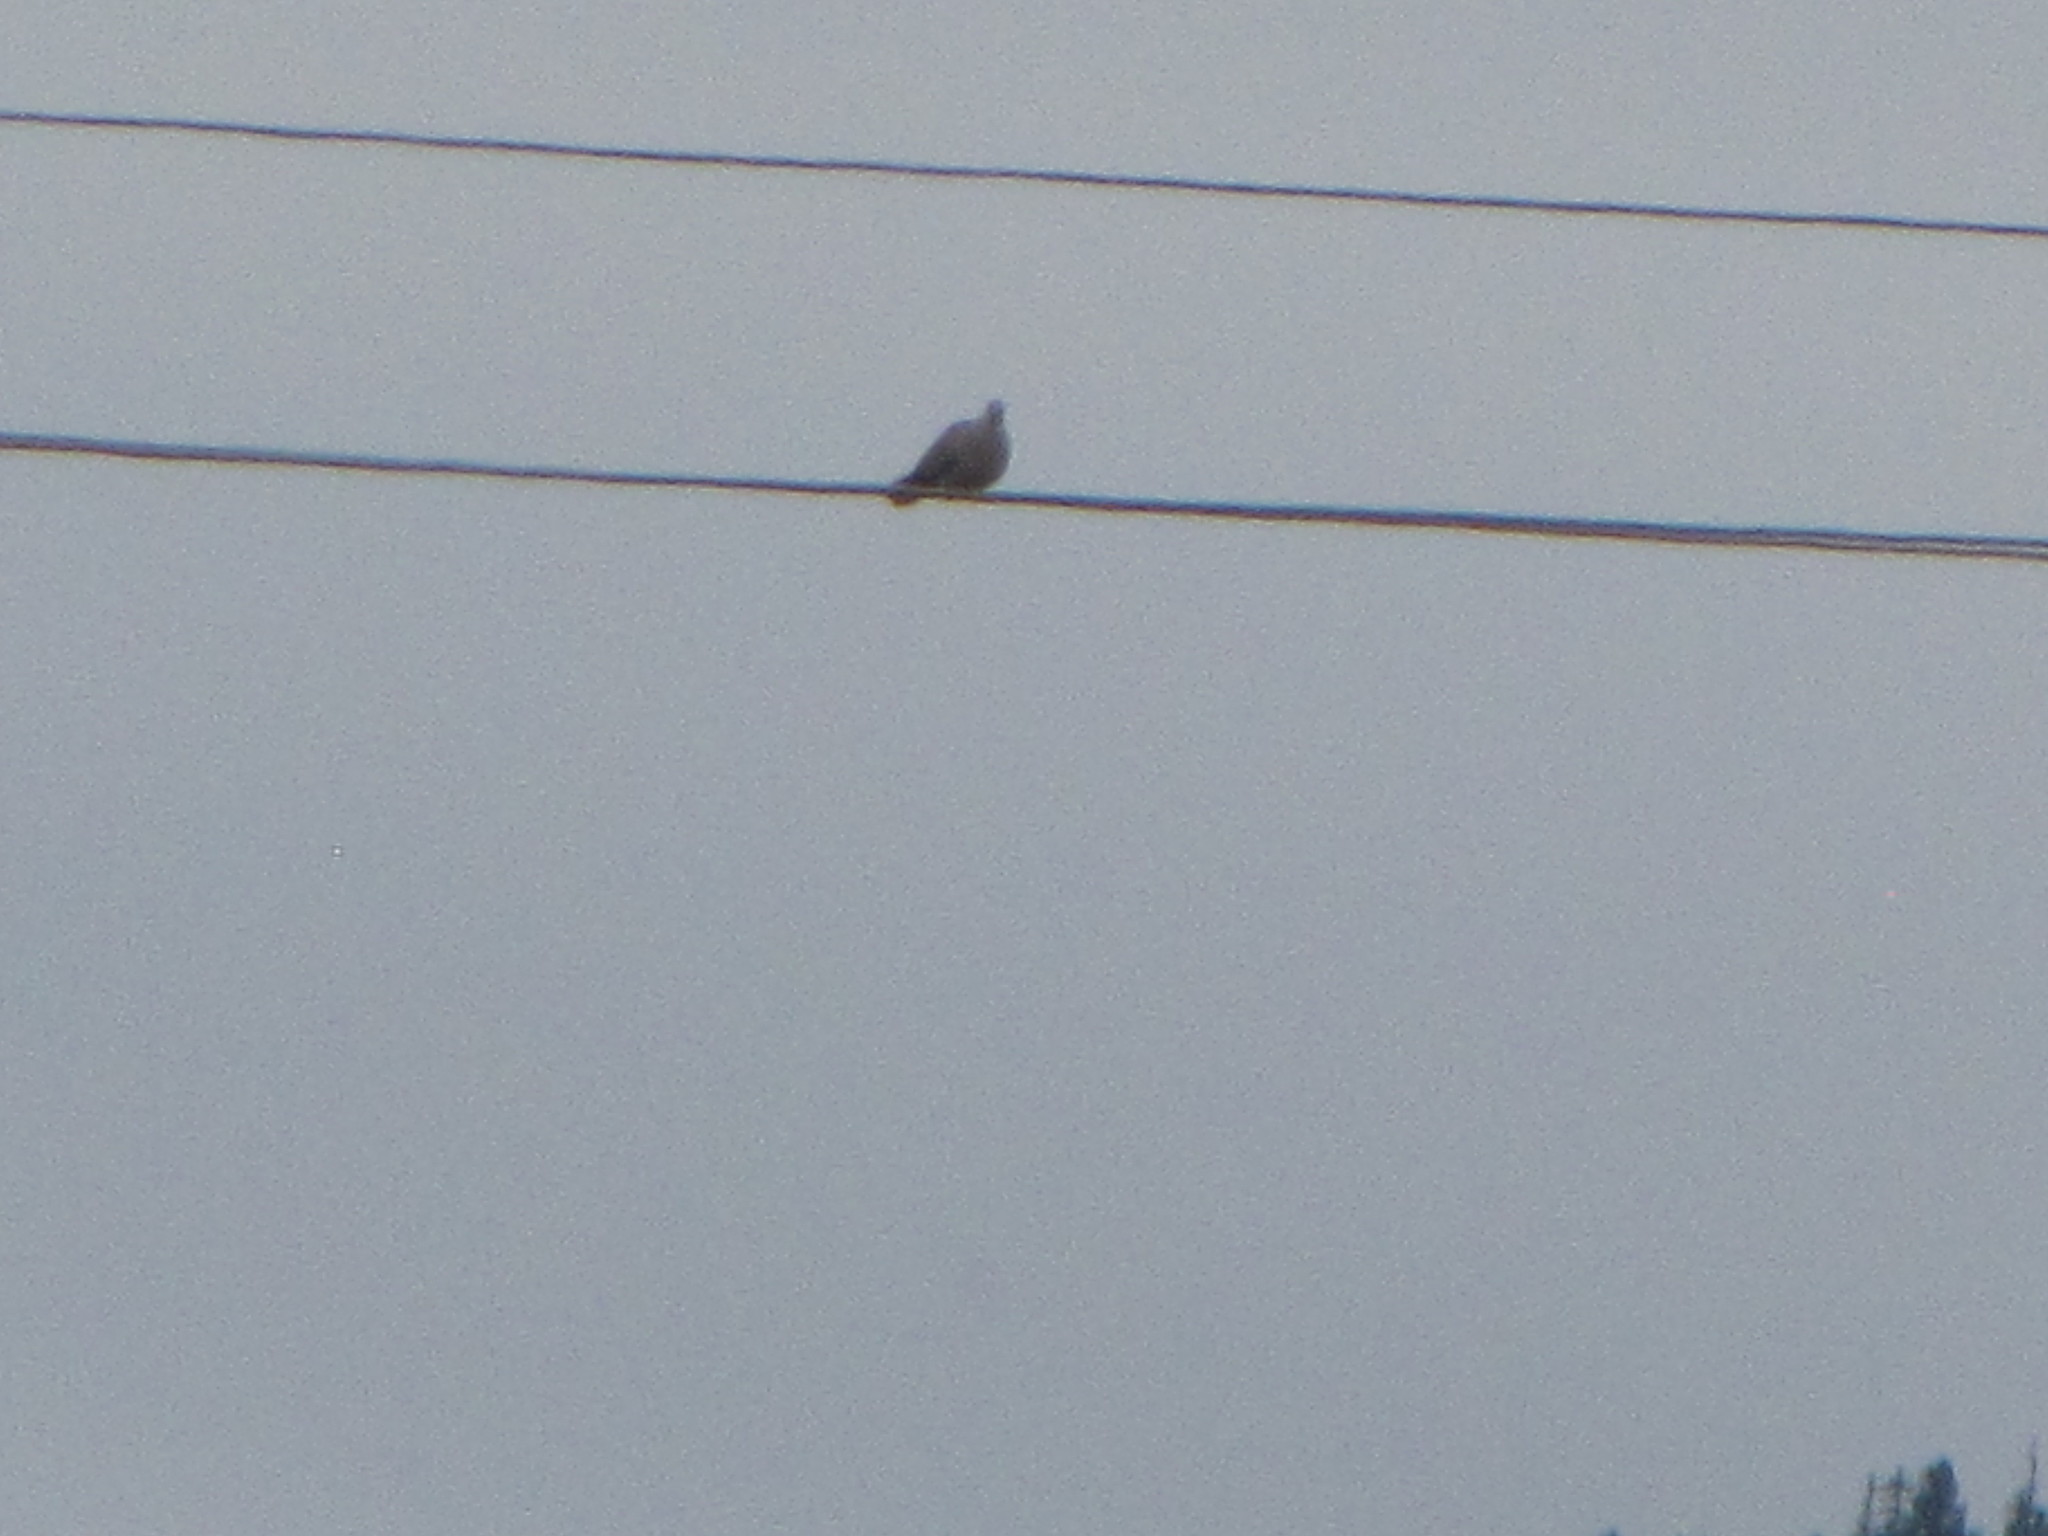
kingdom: Animalia
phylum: Chordata
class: Aves
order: Columbiformes
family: Columbidae
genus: Streptopelia
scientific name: Streptopelia decaocto
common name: Eurasian collared dove
